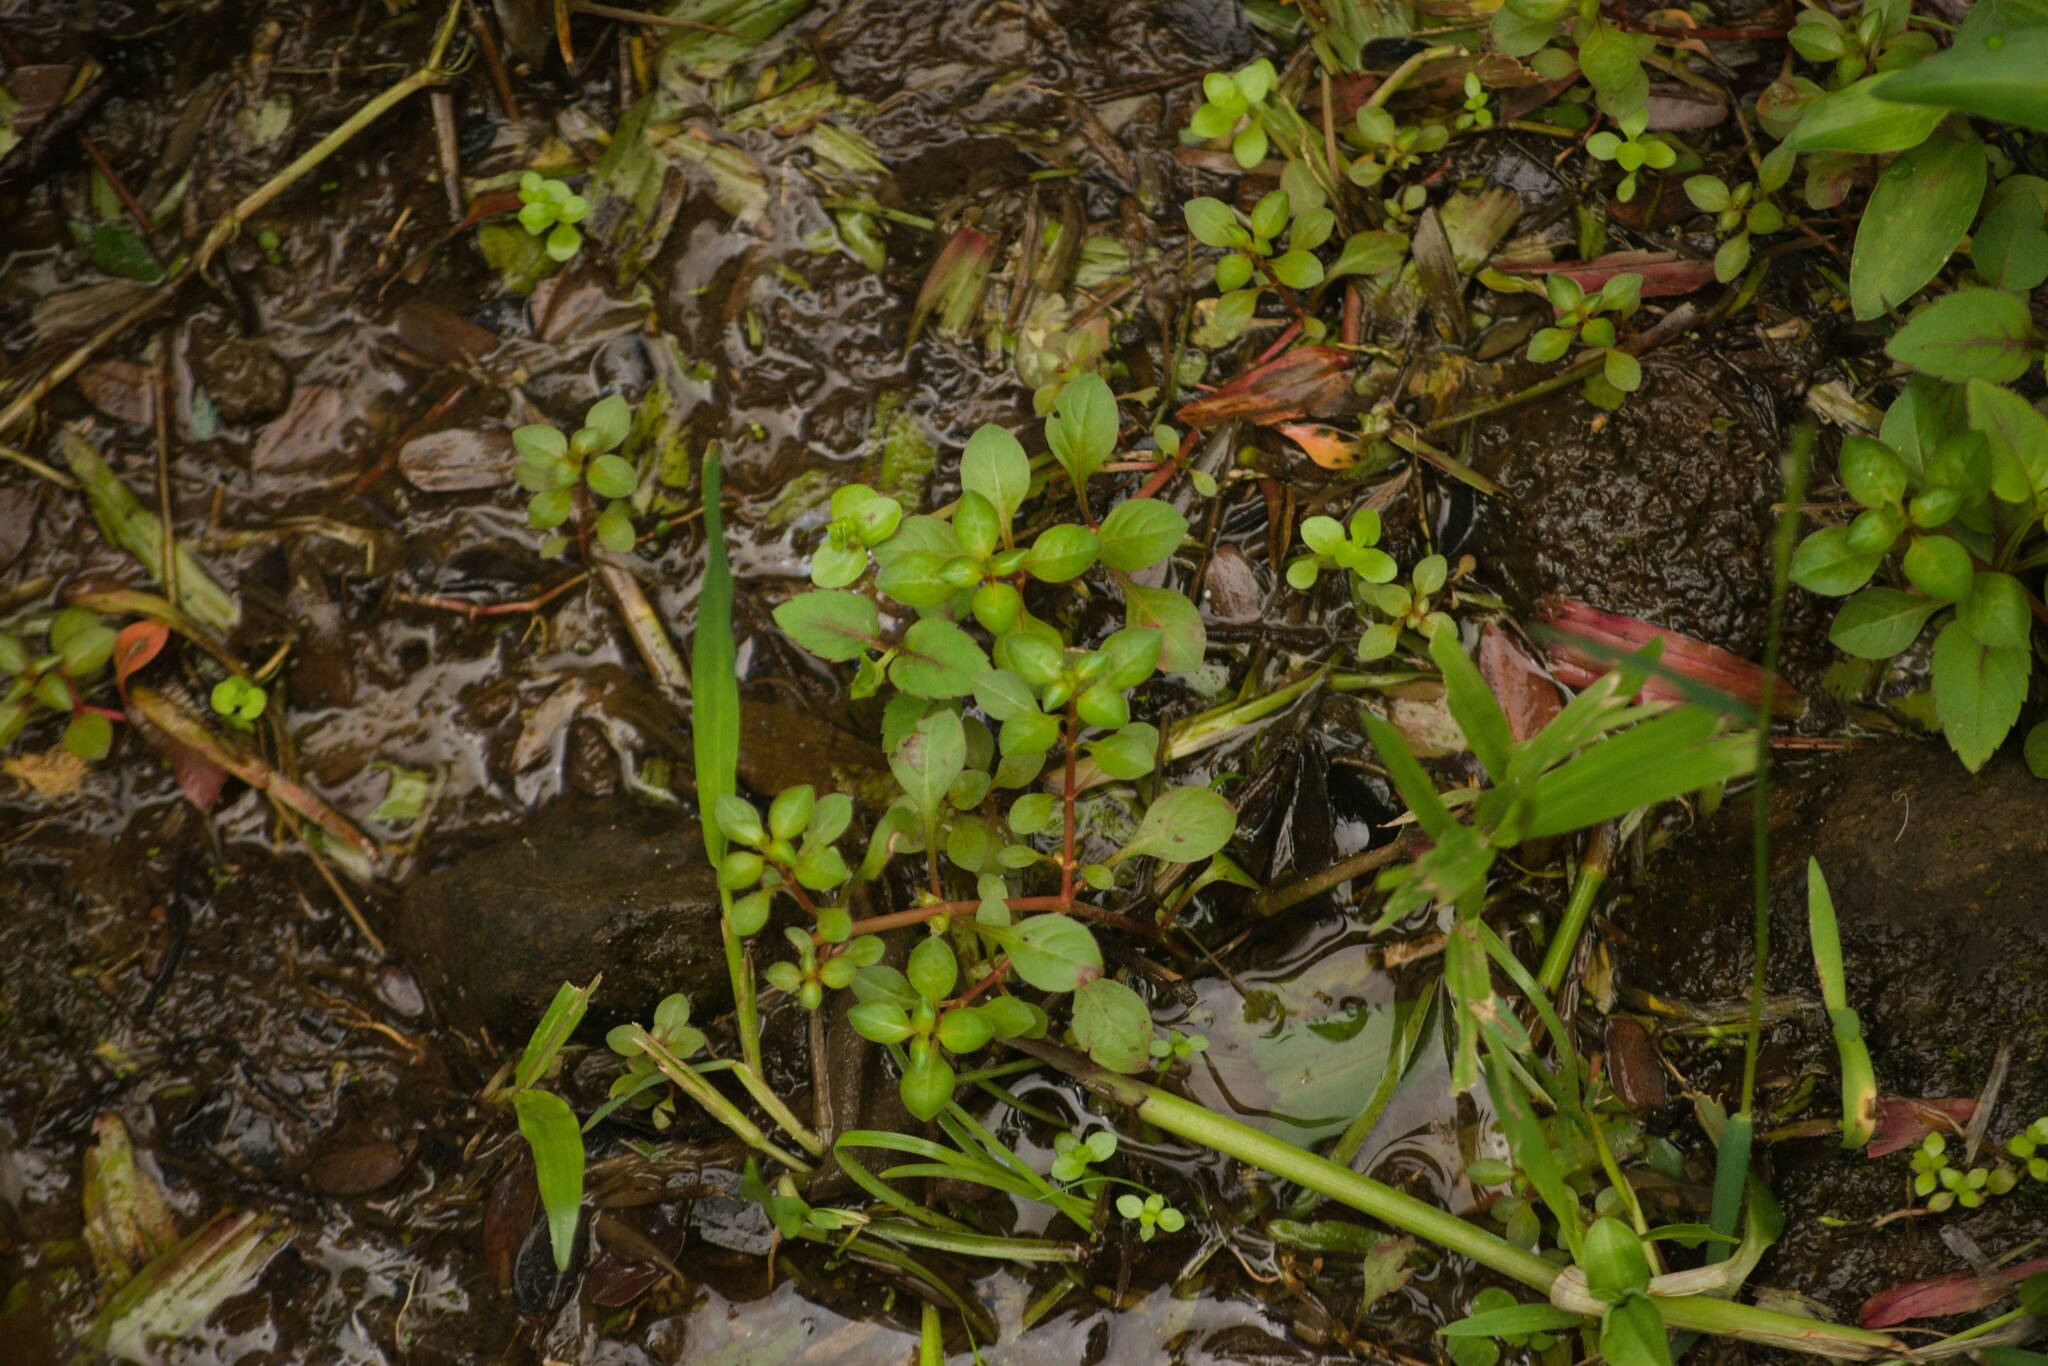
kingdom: Plantae
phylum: Tracheophyta
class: Magnoliopsida
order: Myrtales
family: Onagraceae
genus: Ludwigia
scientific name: Ludwigia palustris
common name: Hampshire-purslane
